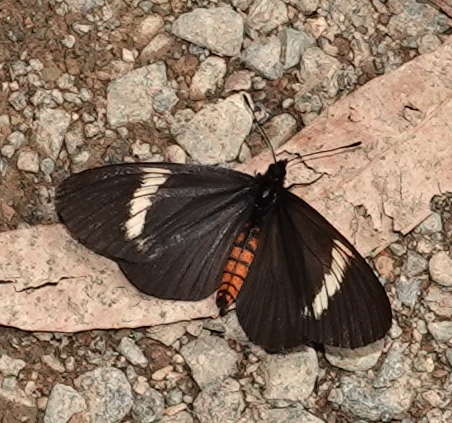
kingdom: Animalia
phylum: Arthropoda
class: Insecta
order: Lepidoptera
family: Nymphalidae
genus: Actinote
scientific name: Actinote neleus
